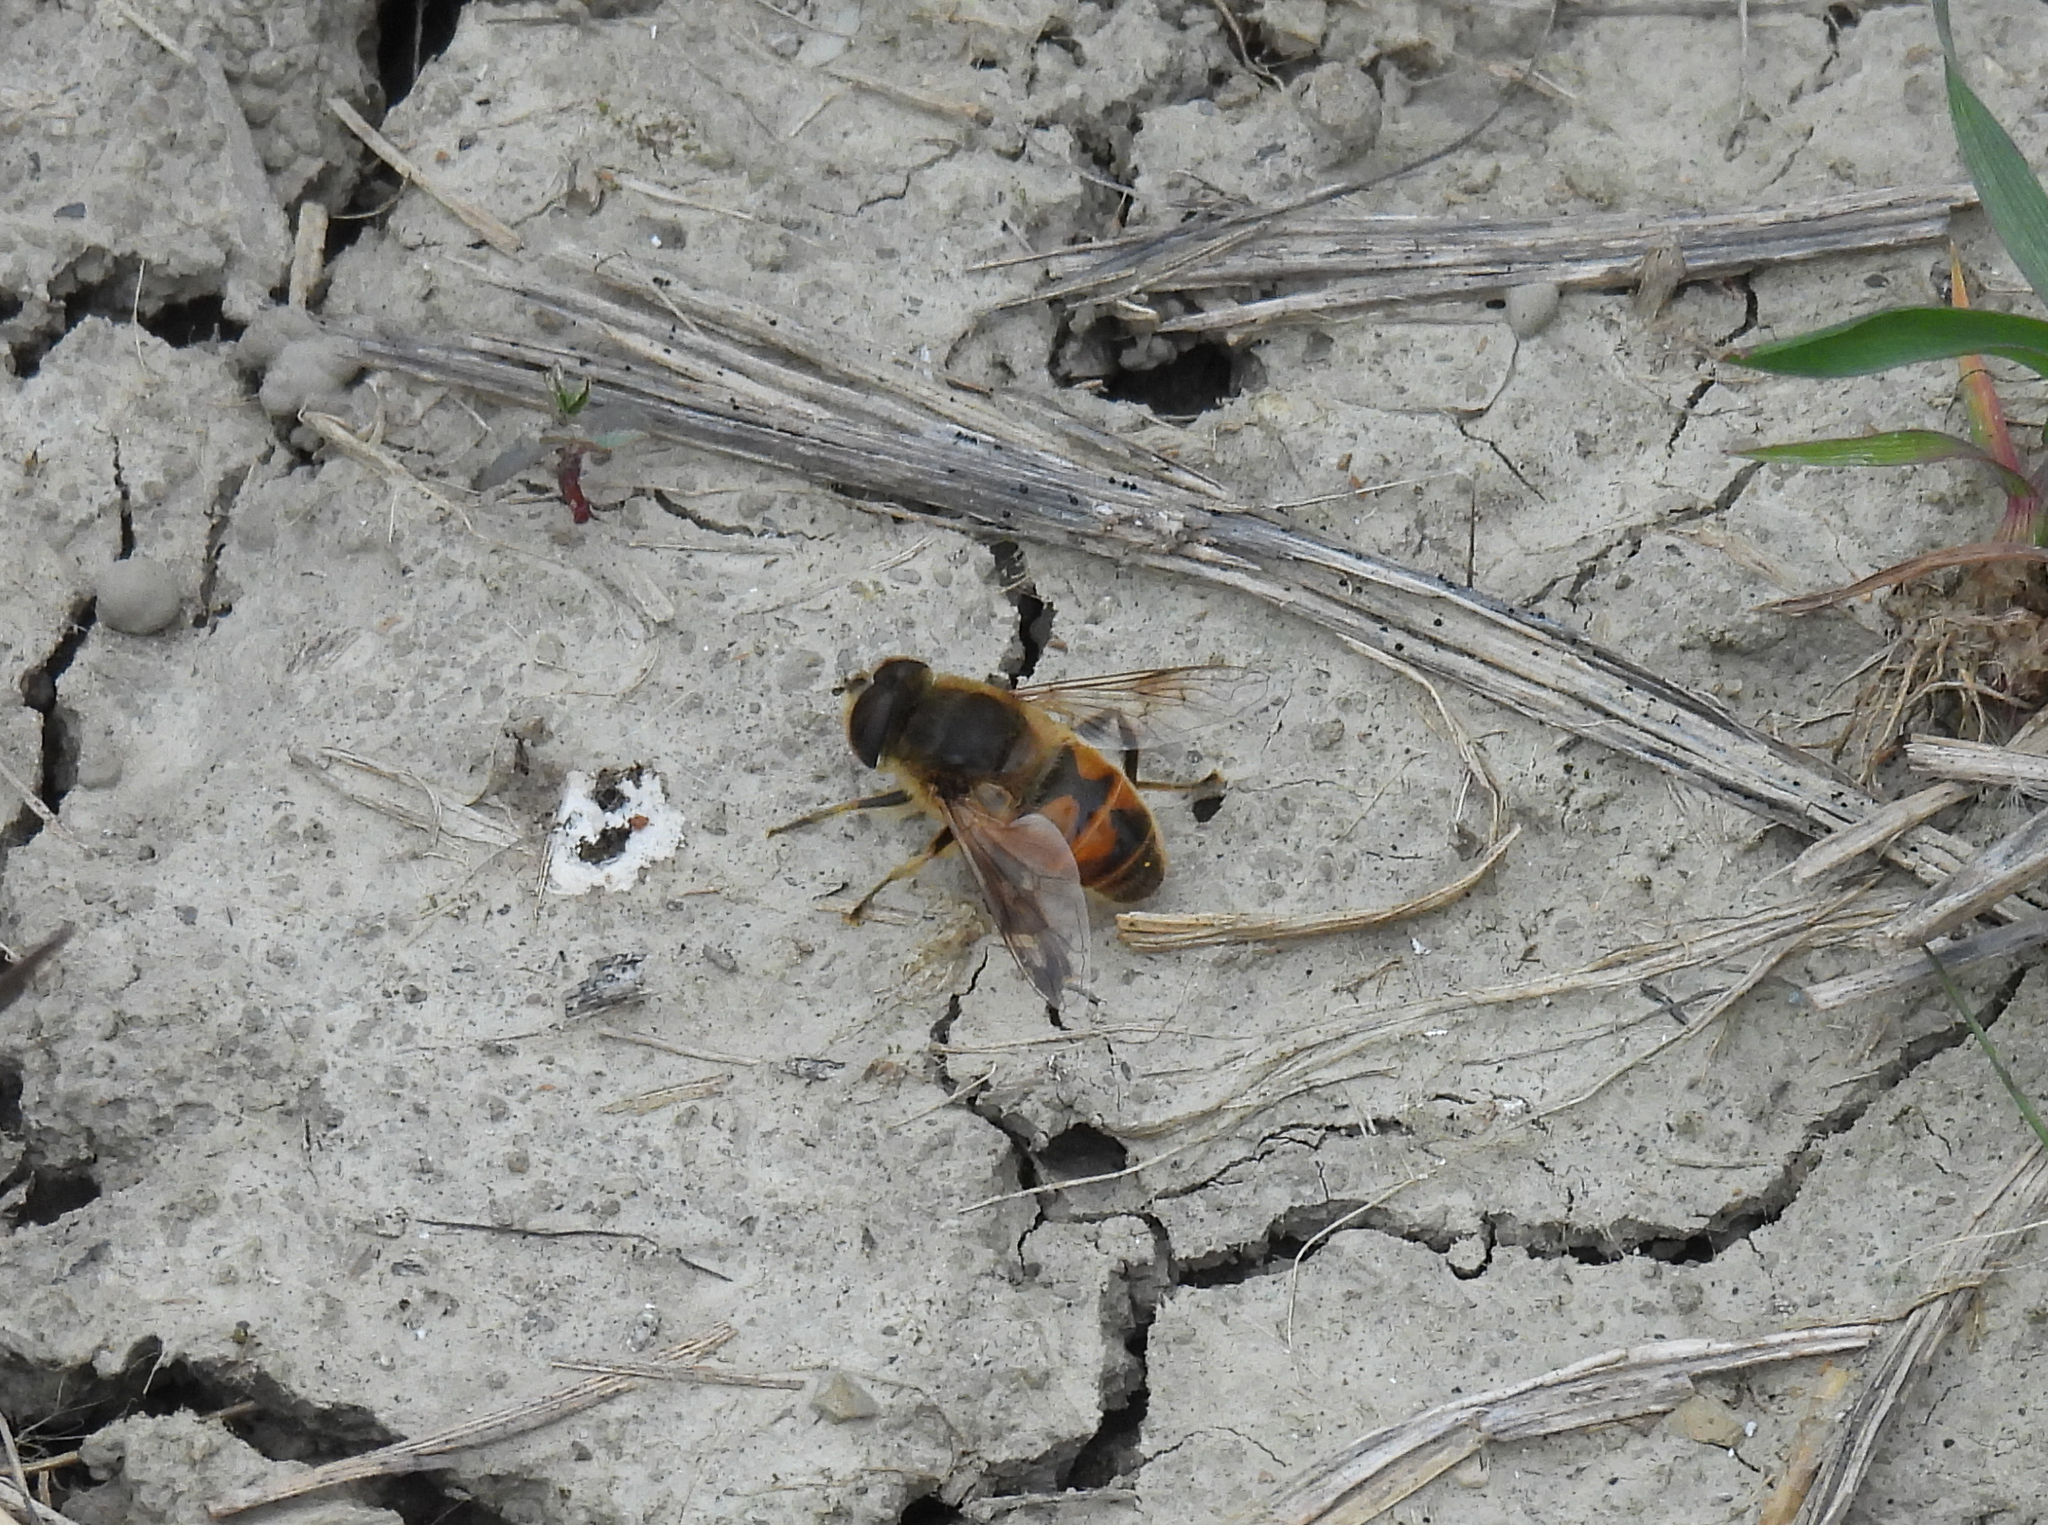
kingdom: Animalia
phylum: Arthropoda
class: Insecta
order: Diptera
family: Syrphidae
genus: Eristalis
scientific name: Eristalis tenax
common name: Drone fly
